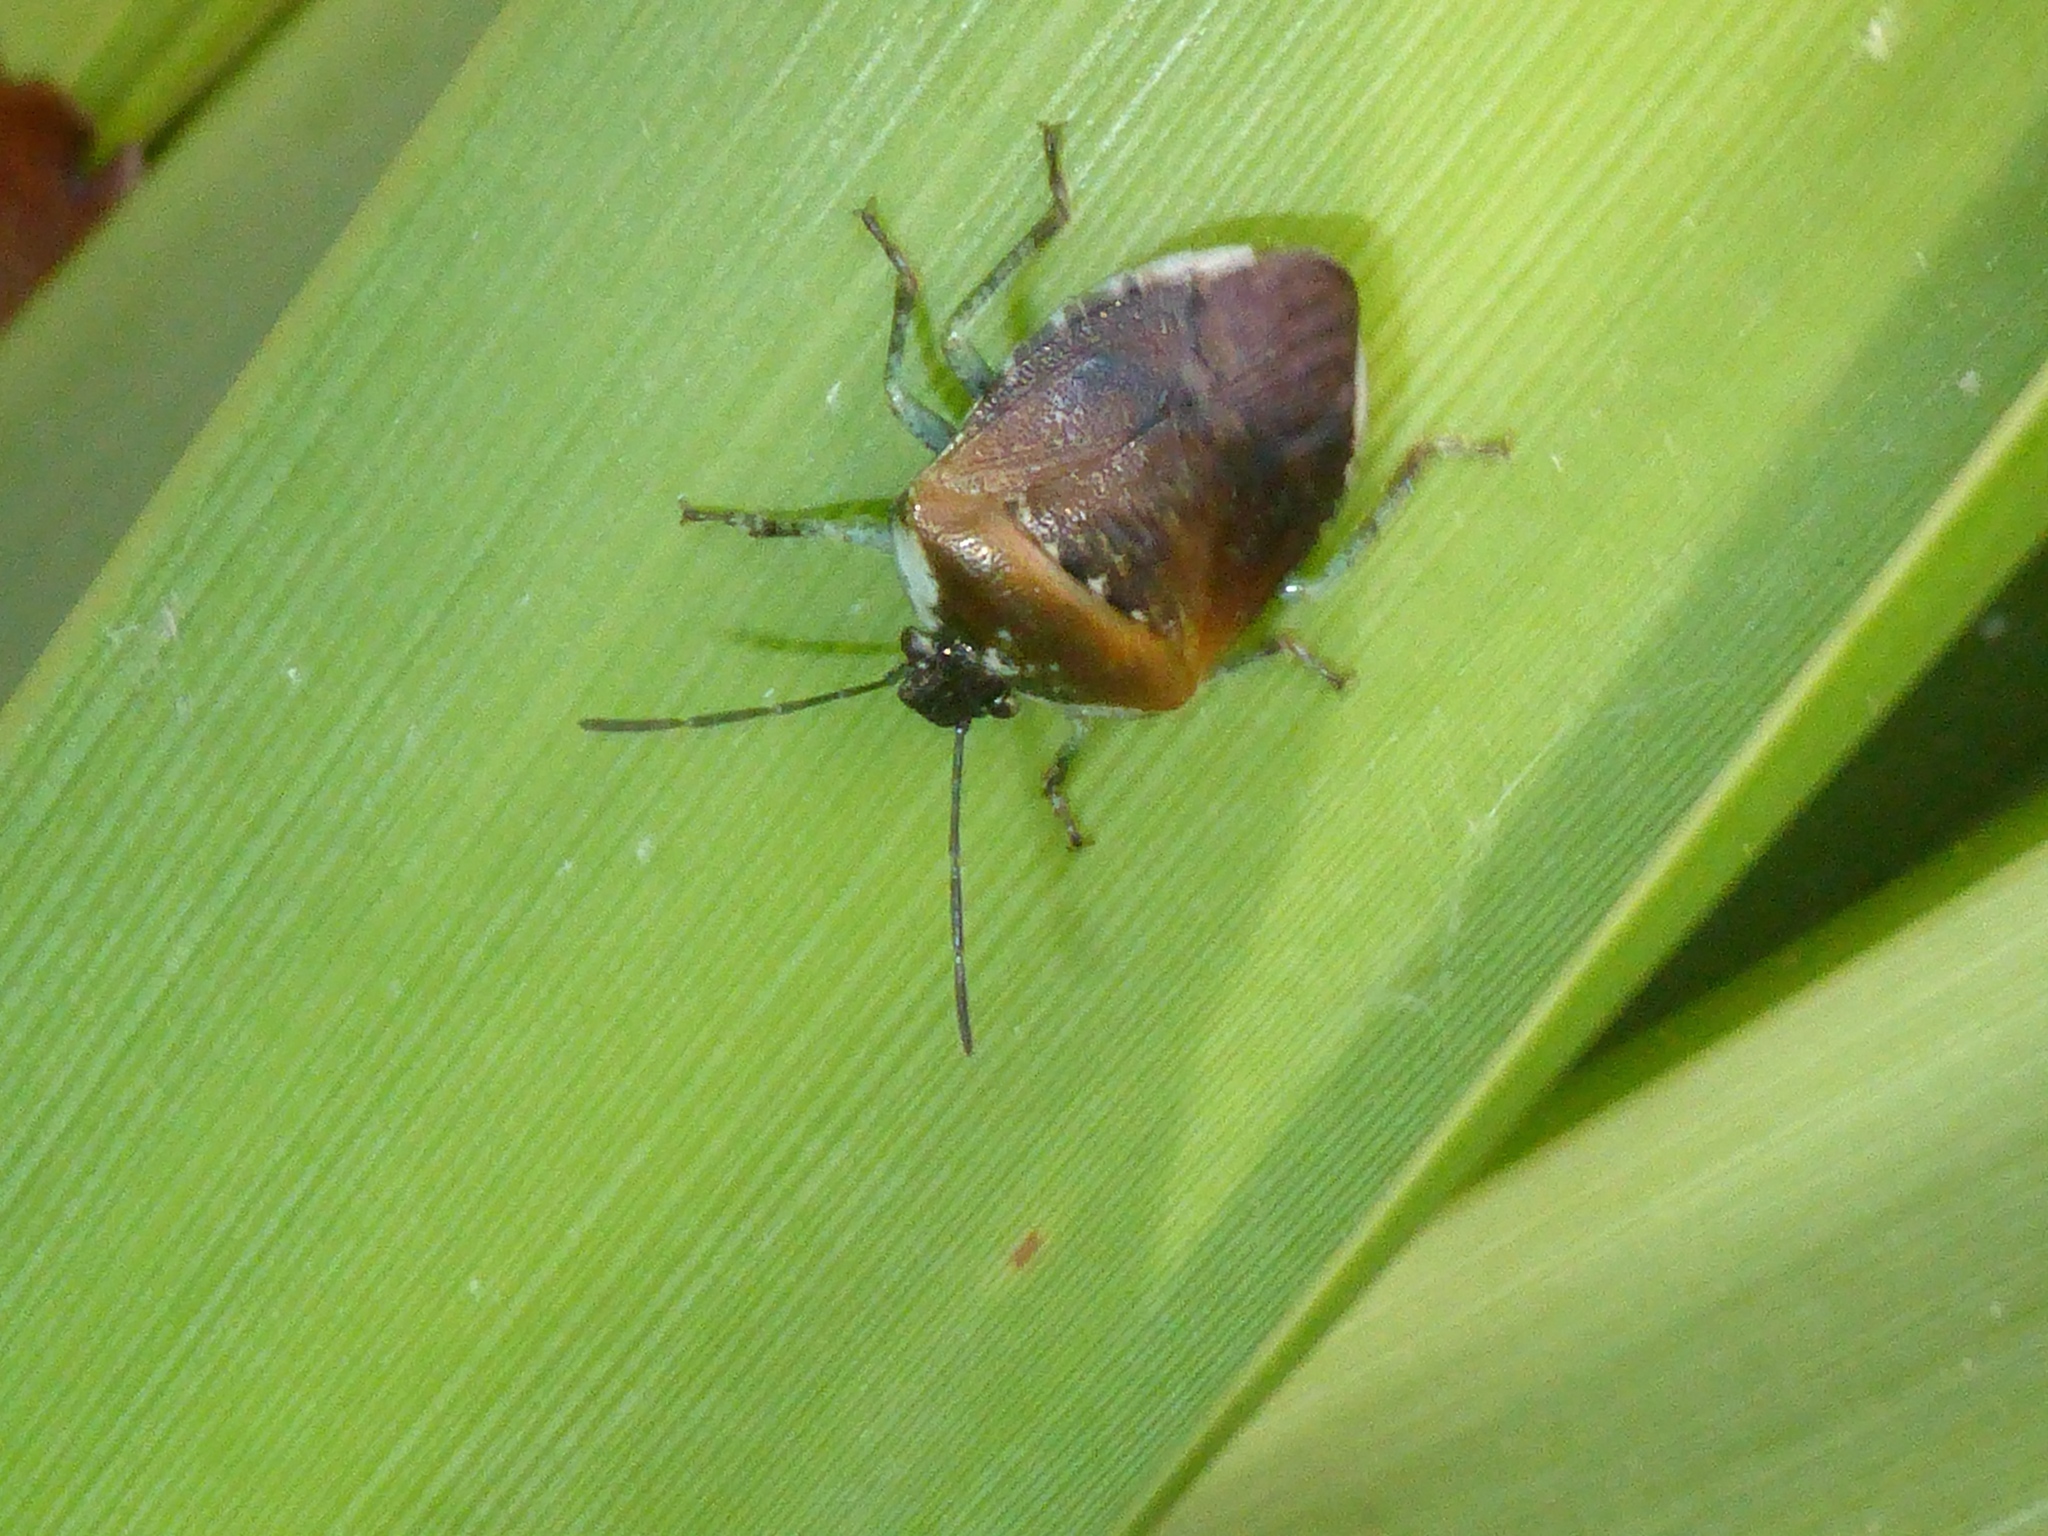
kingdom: Animalia
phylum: Arthropoda
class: Insecta
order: Hemiptera
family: Pentatomidae
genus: Monteithiella
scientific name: Monteithiella
